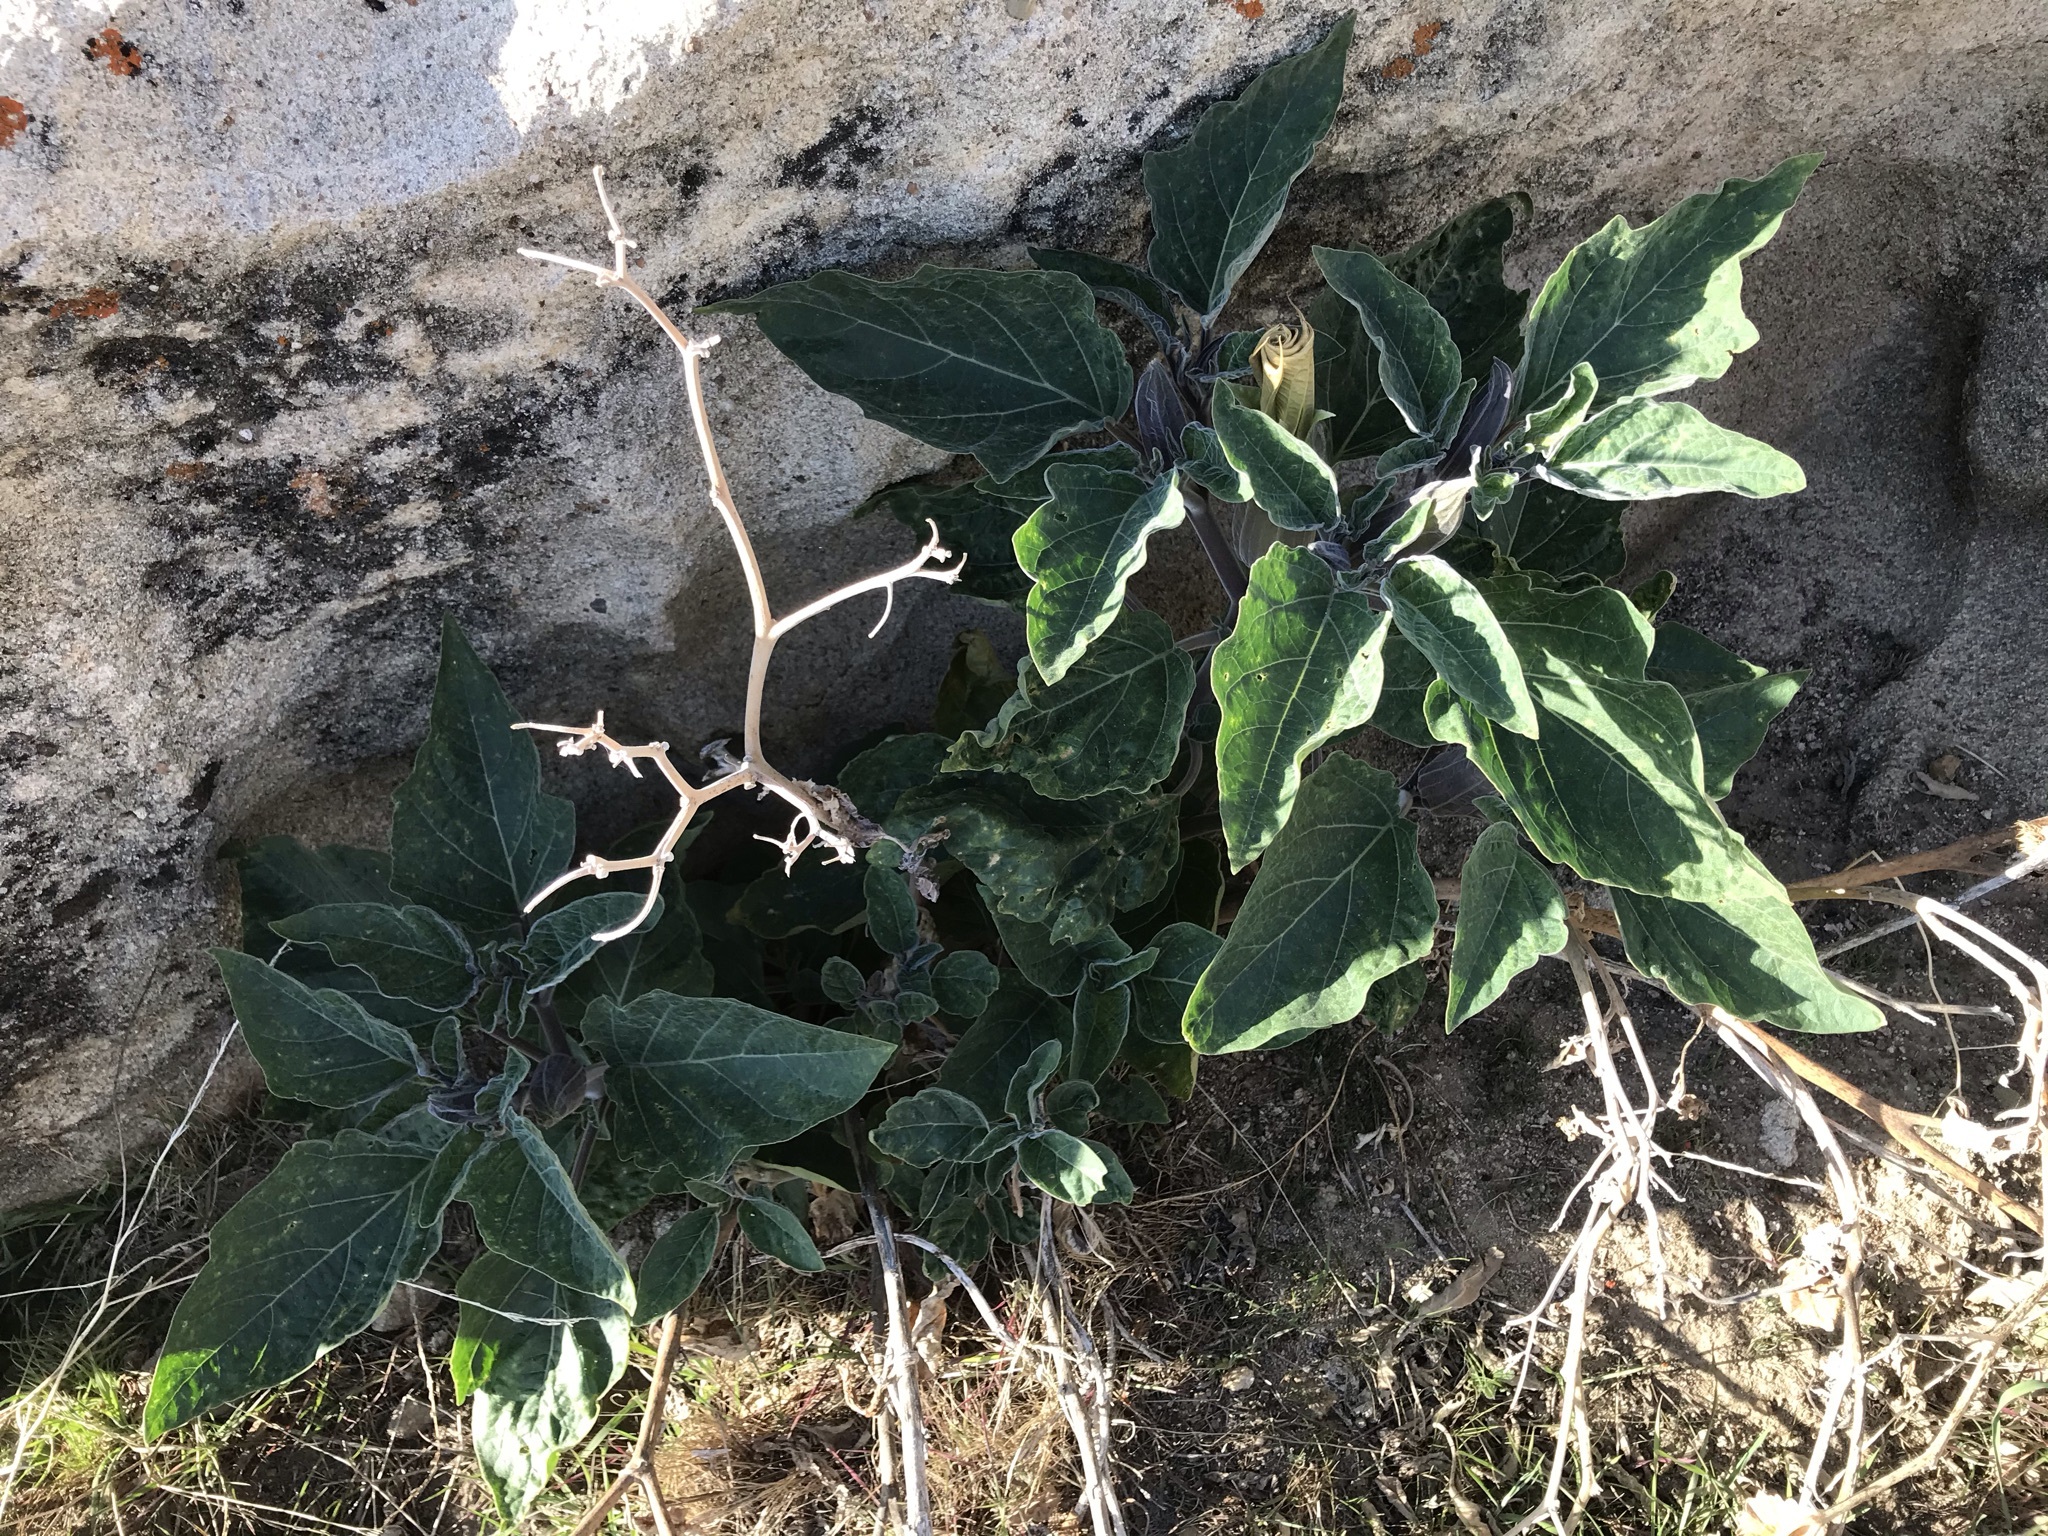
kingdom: Plantae
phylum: Tracheophyta
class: Magnoliopsida
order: Solanales
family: Solanaceae
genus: Datura
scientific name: Datura wrightii
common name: Sacred thorn-apple
